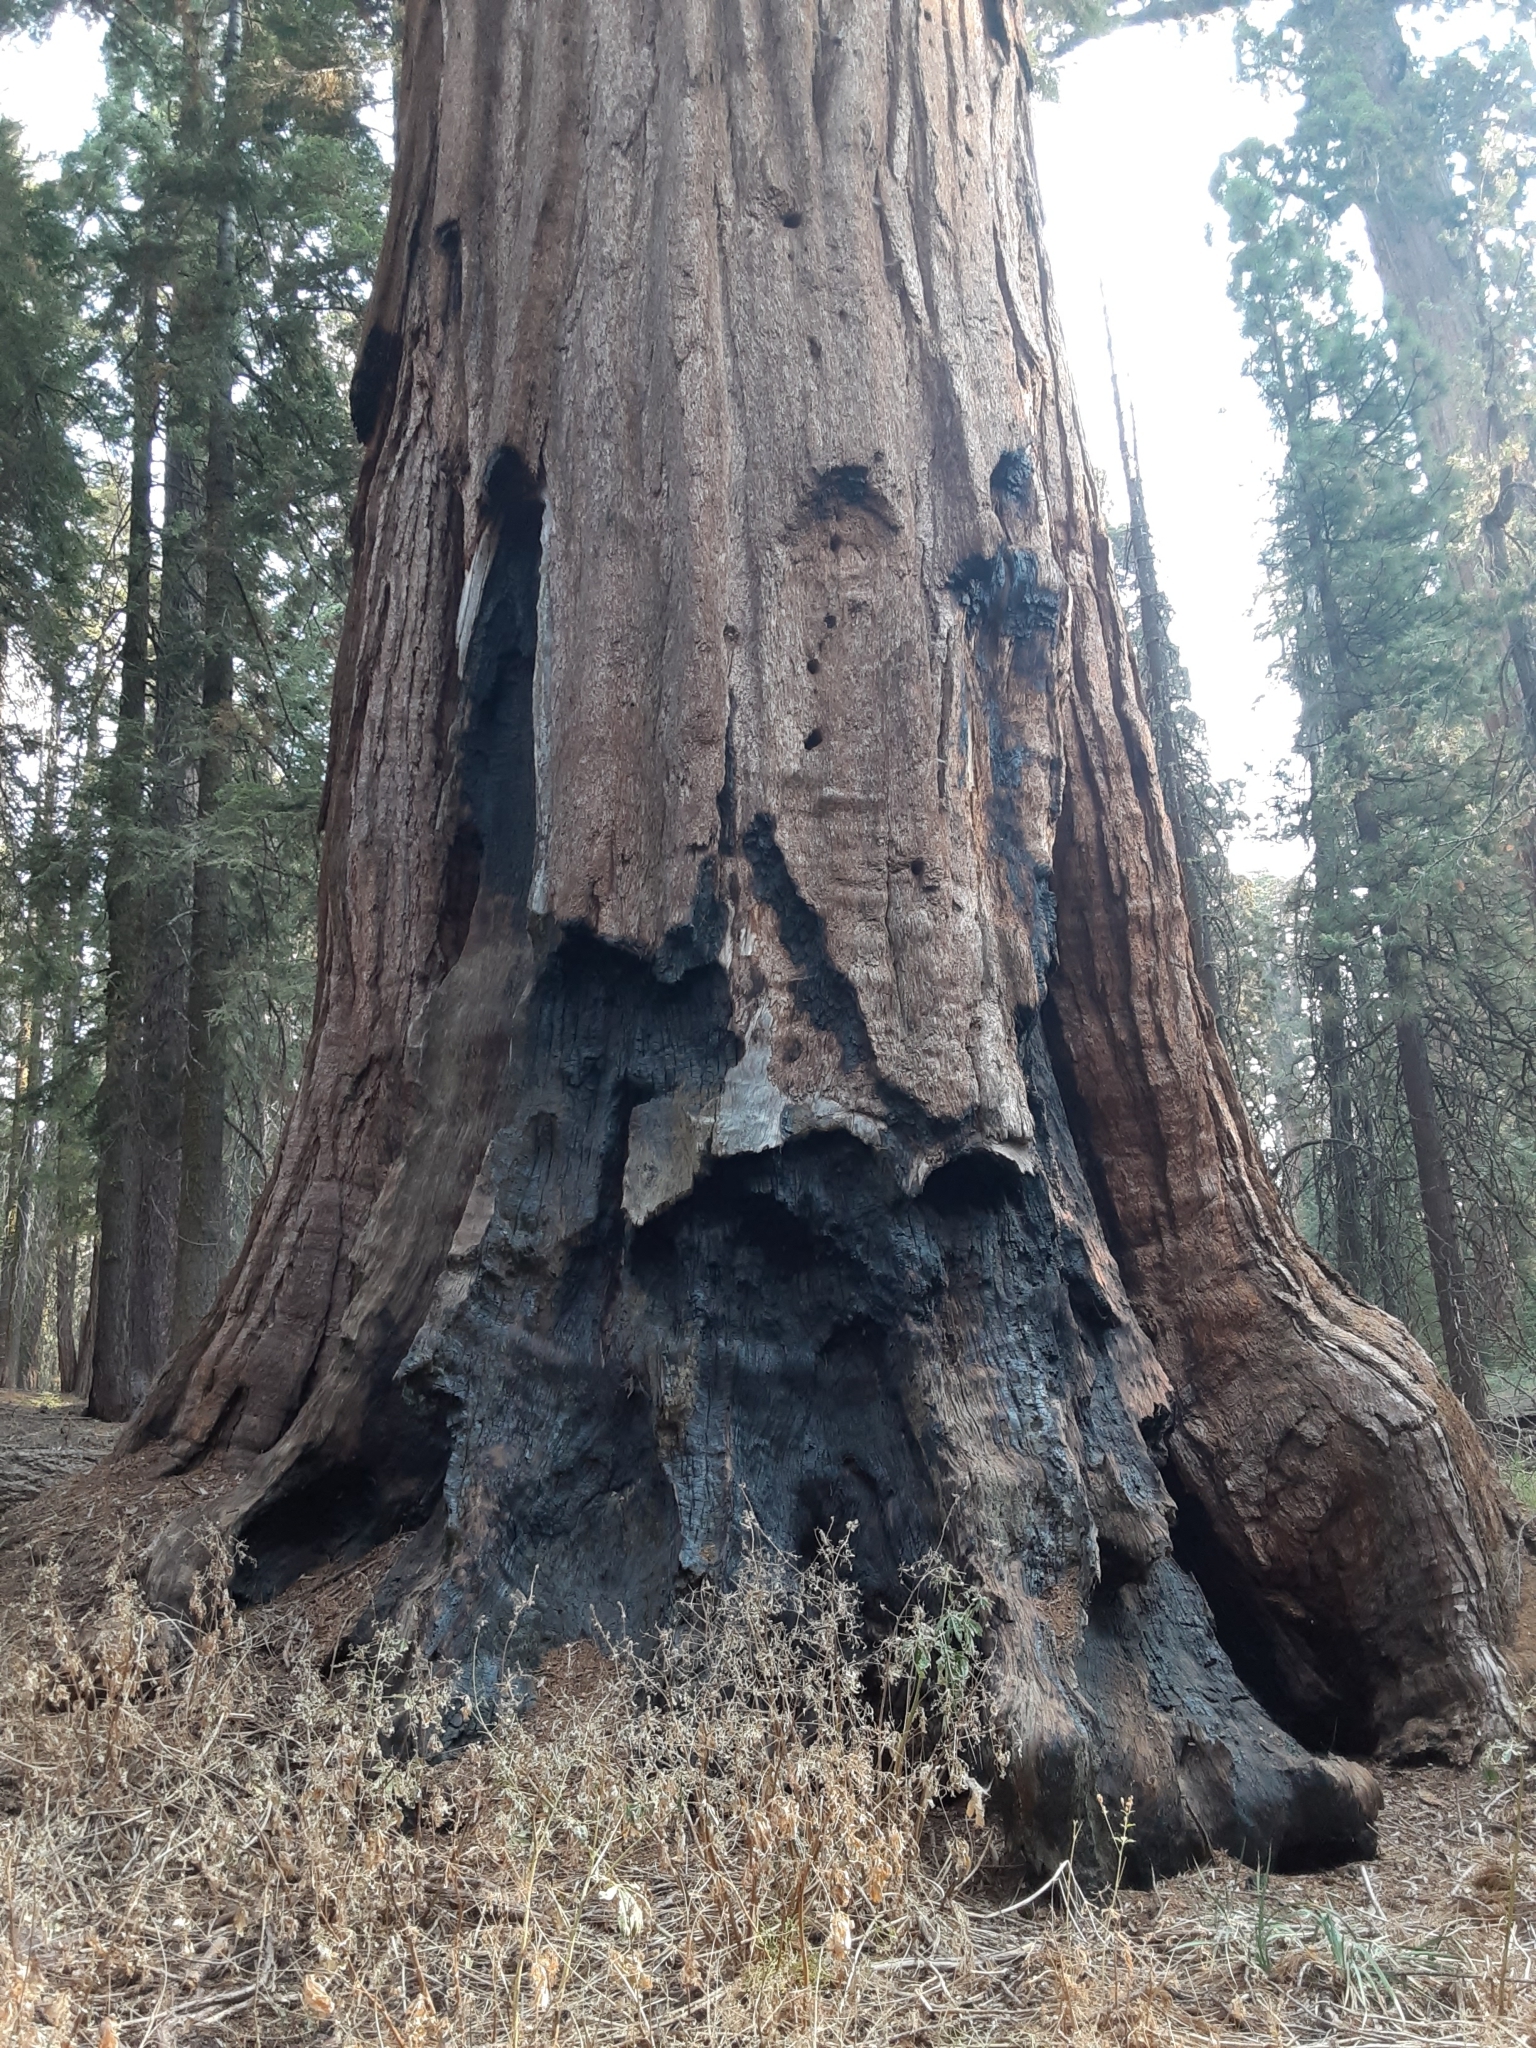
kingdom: Plantae
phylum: Tracheophyta
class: Pinopsida
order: Pinales
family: Cupressaceae
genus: Sequoiadendron
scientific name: Sequoiadendron giganteum
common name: Wellingtonia
